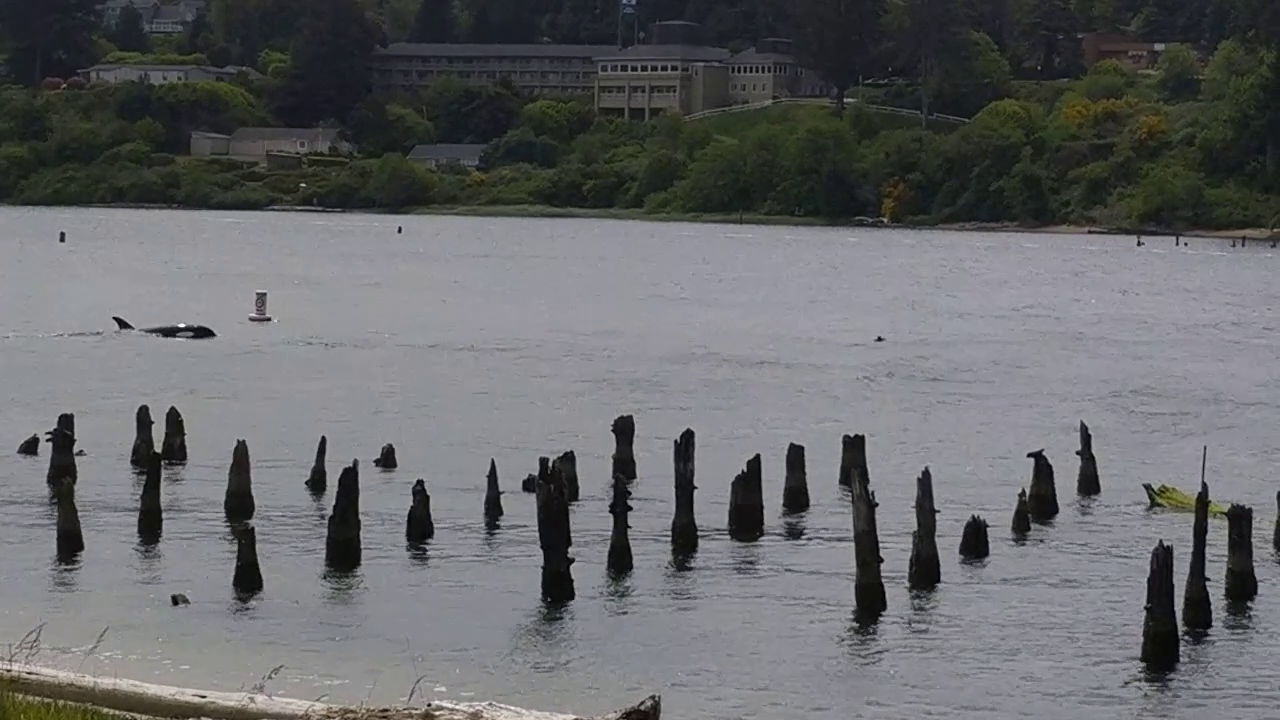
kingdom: Animalia
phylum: Chordata
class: Mammalia
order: Cetacea
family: Delphinidae
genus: Orcinus
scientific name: Orcinus orca
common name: Killer whale
